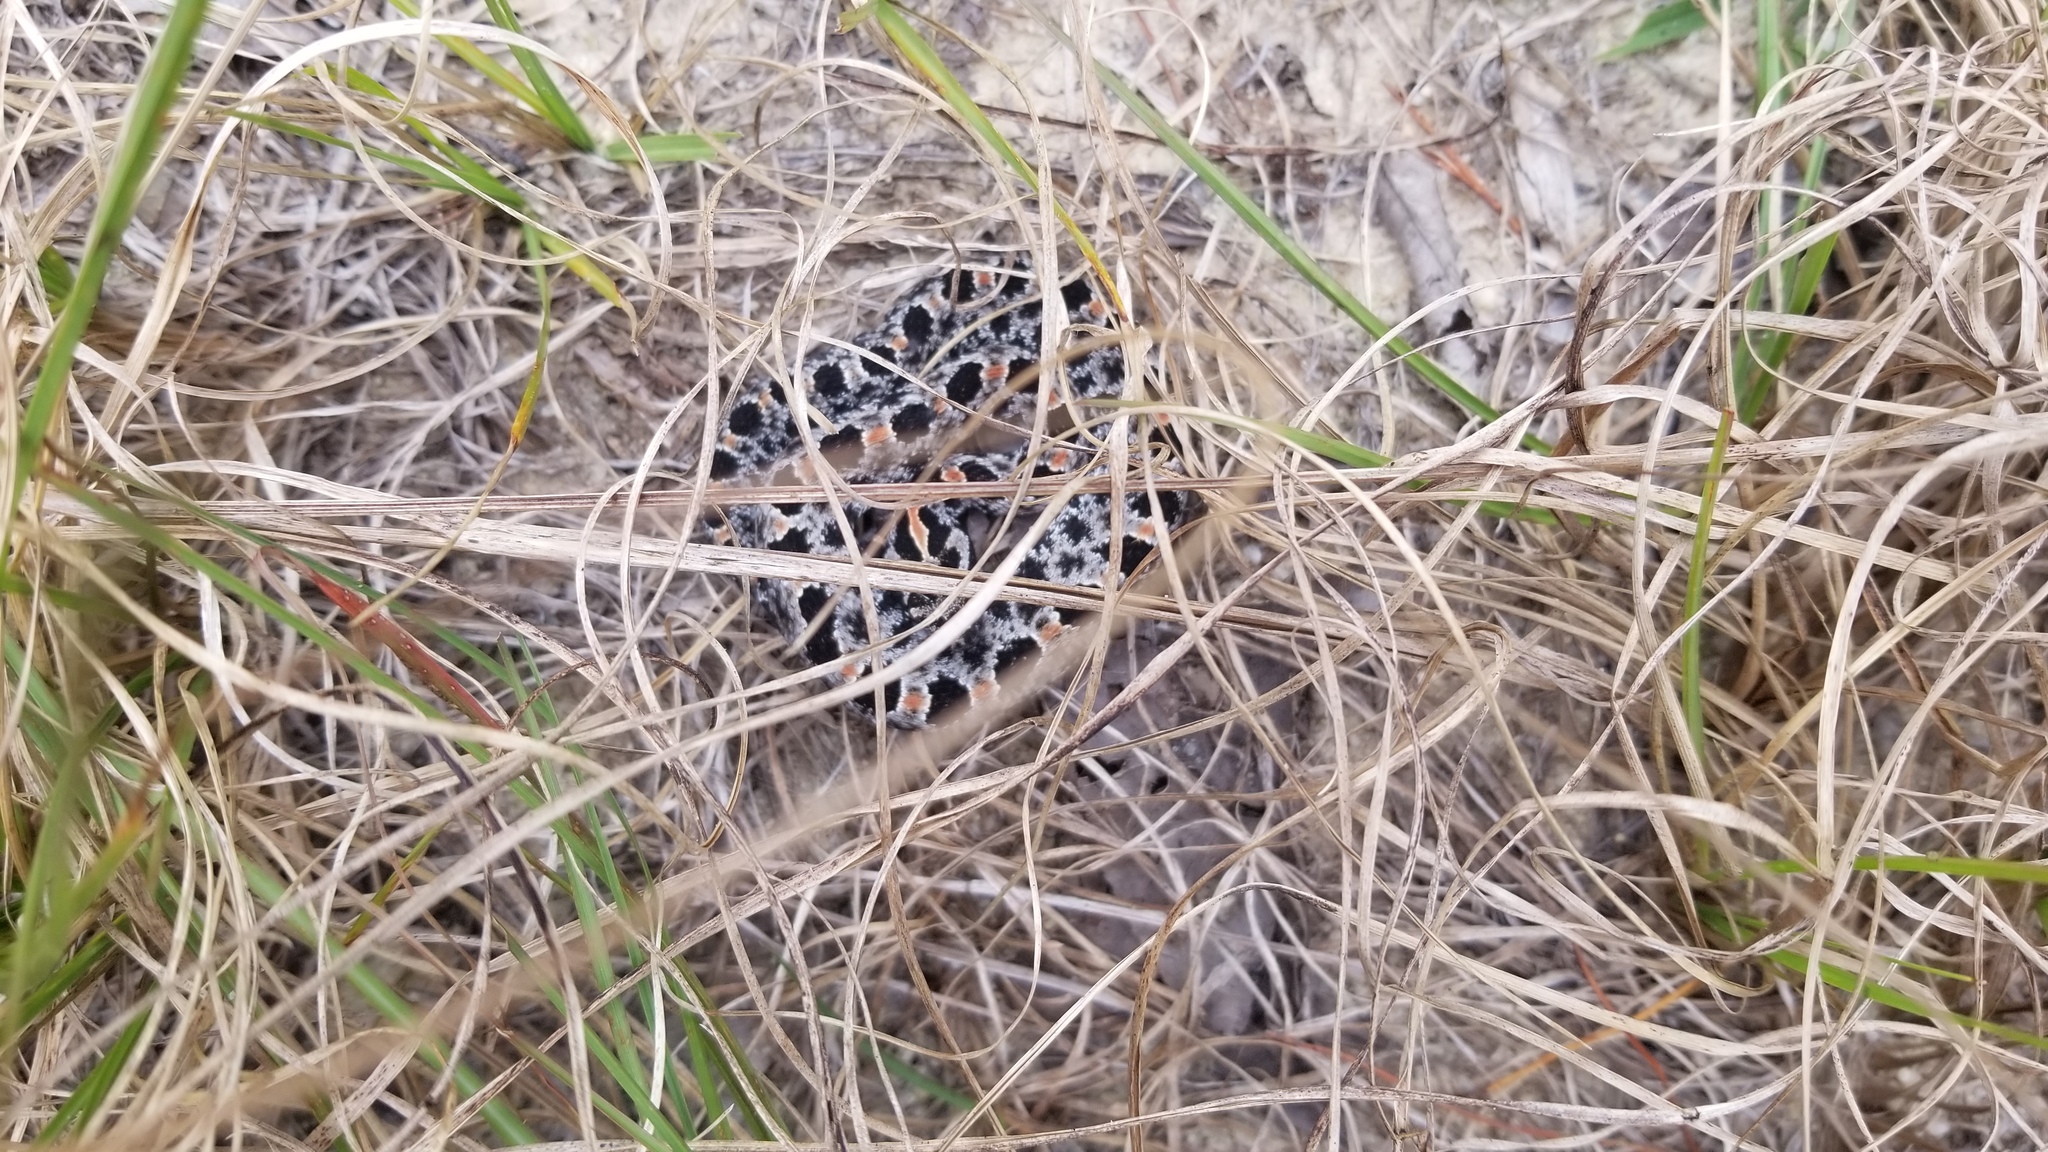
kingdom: Animalia
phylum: Chordata
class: Squamata
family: Viperidae
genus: Sistrurus
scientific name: Sistrurus miliarius
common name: Pygmy rattlesnake
